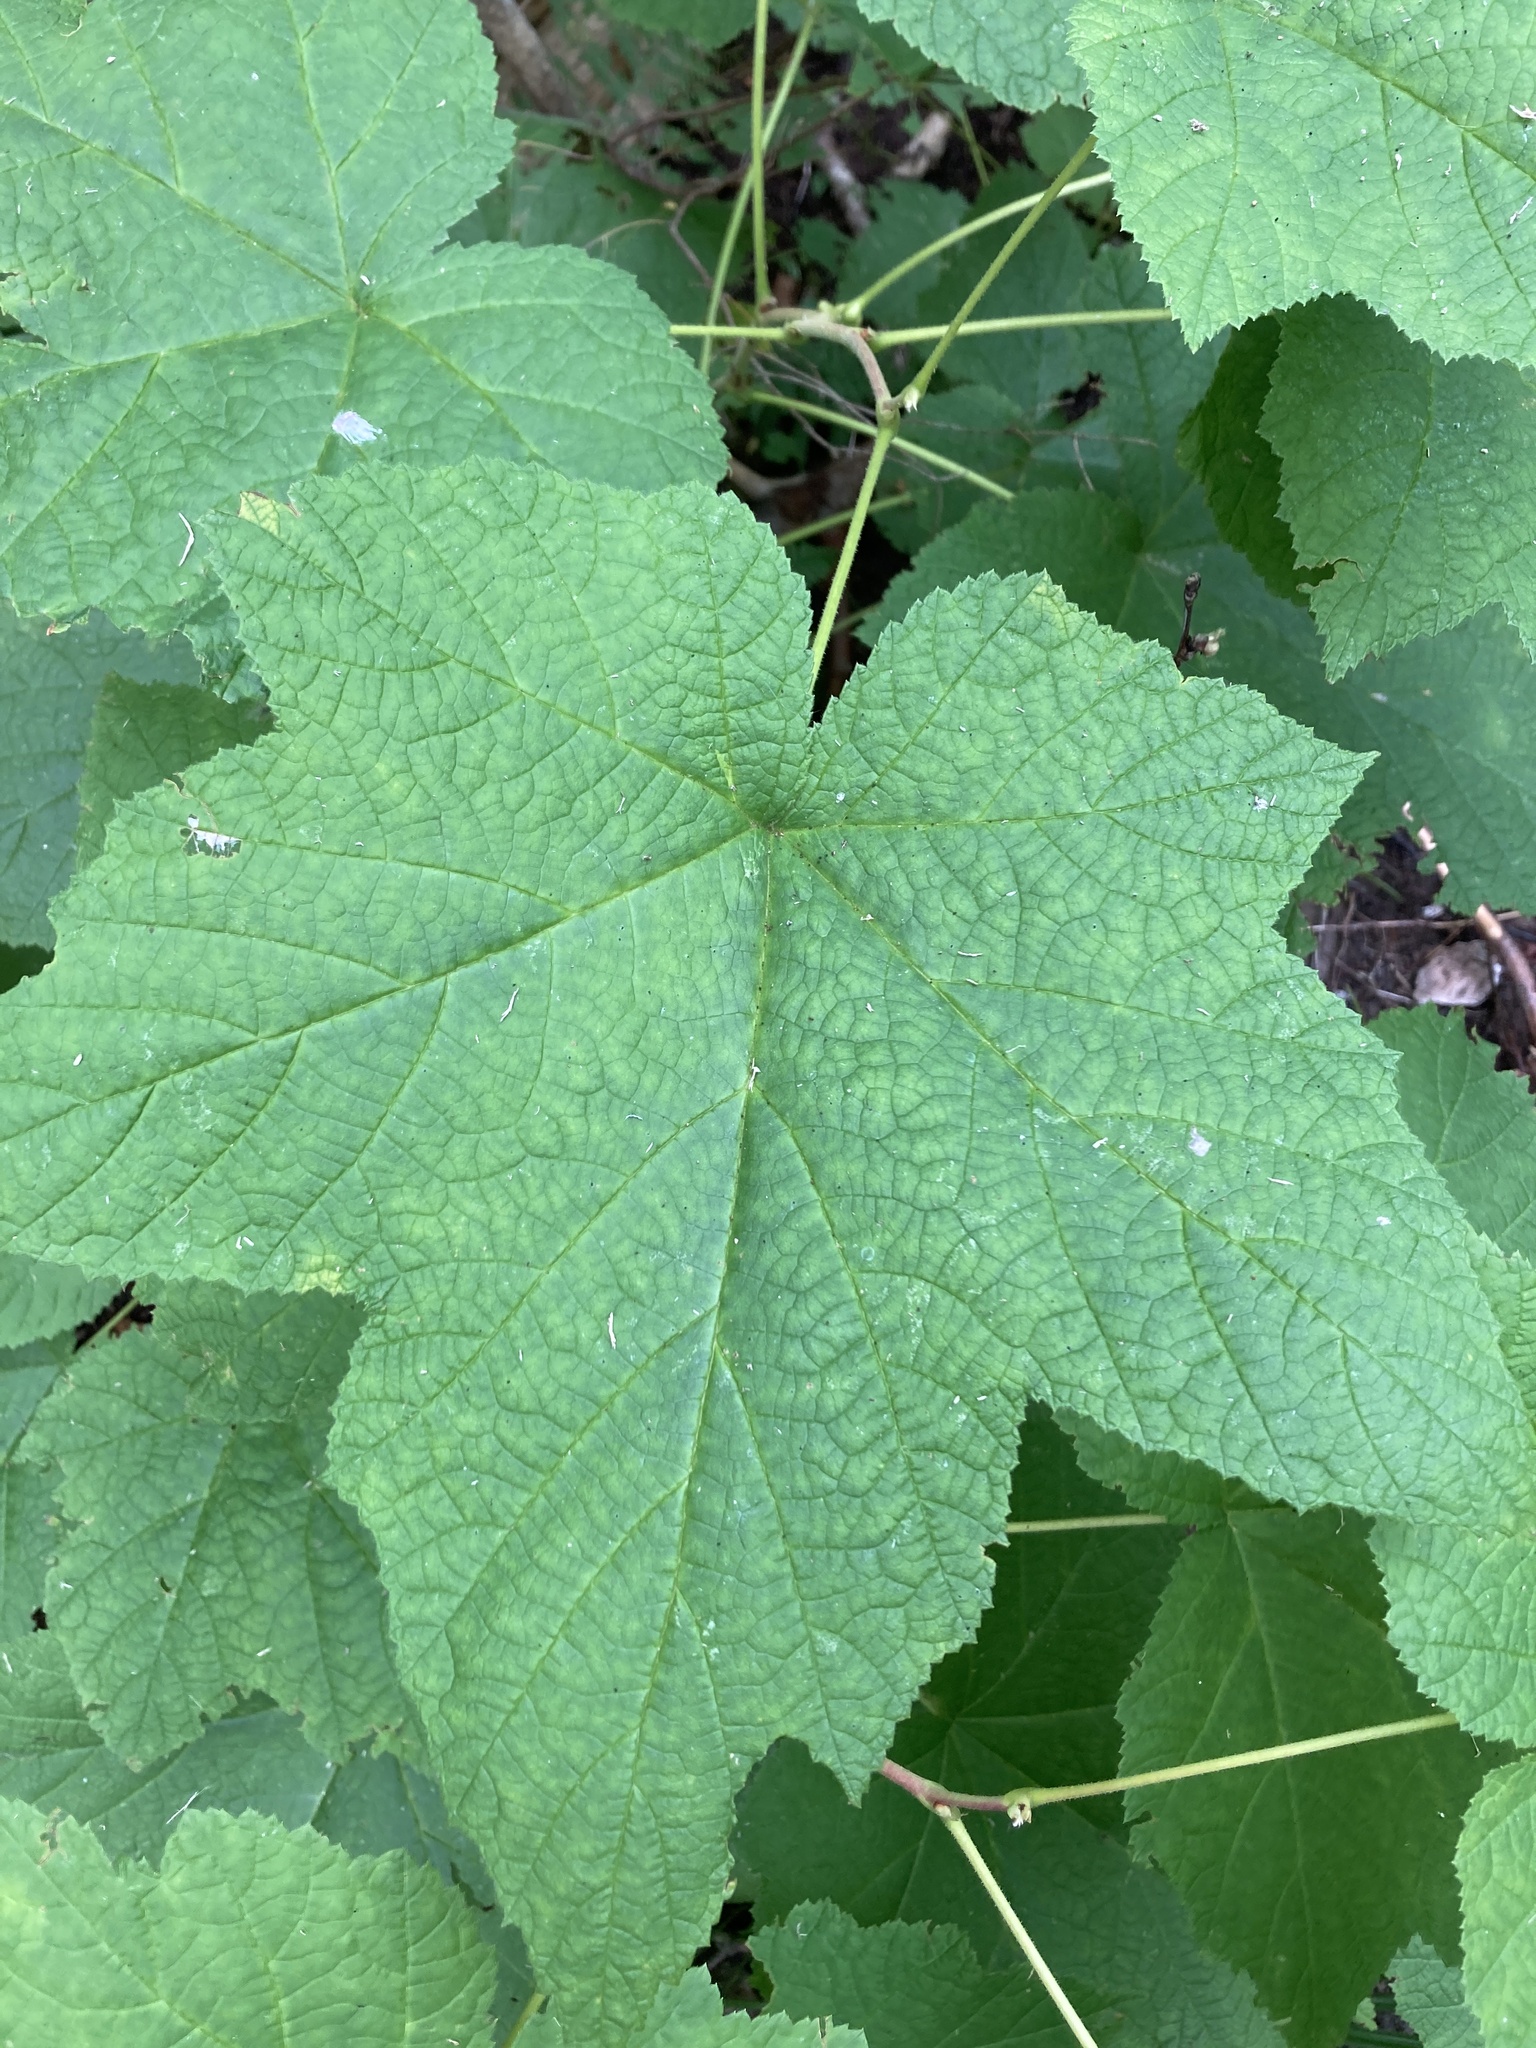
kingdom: Plantae
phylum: Tracheophyta
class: Magnoliopsida
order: Rosales
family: Rosaceae
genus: Rubus
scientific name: Rubus parviflorus
